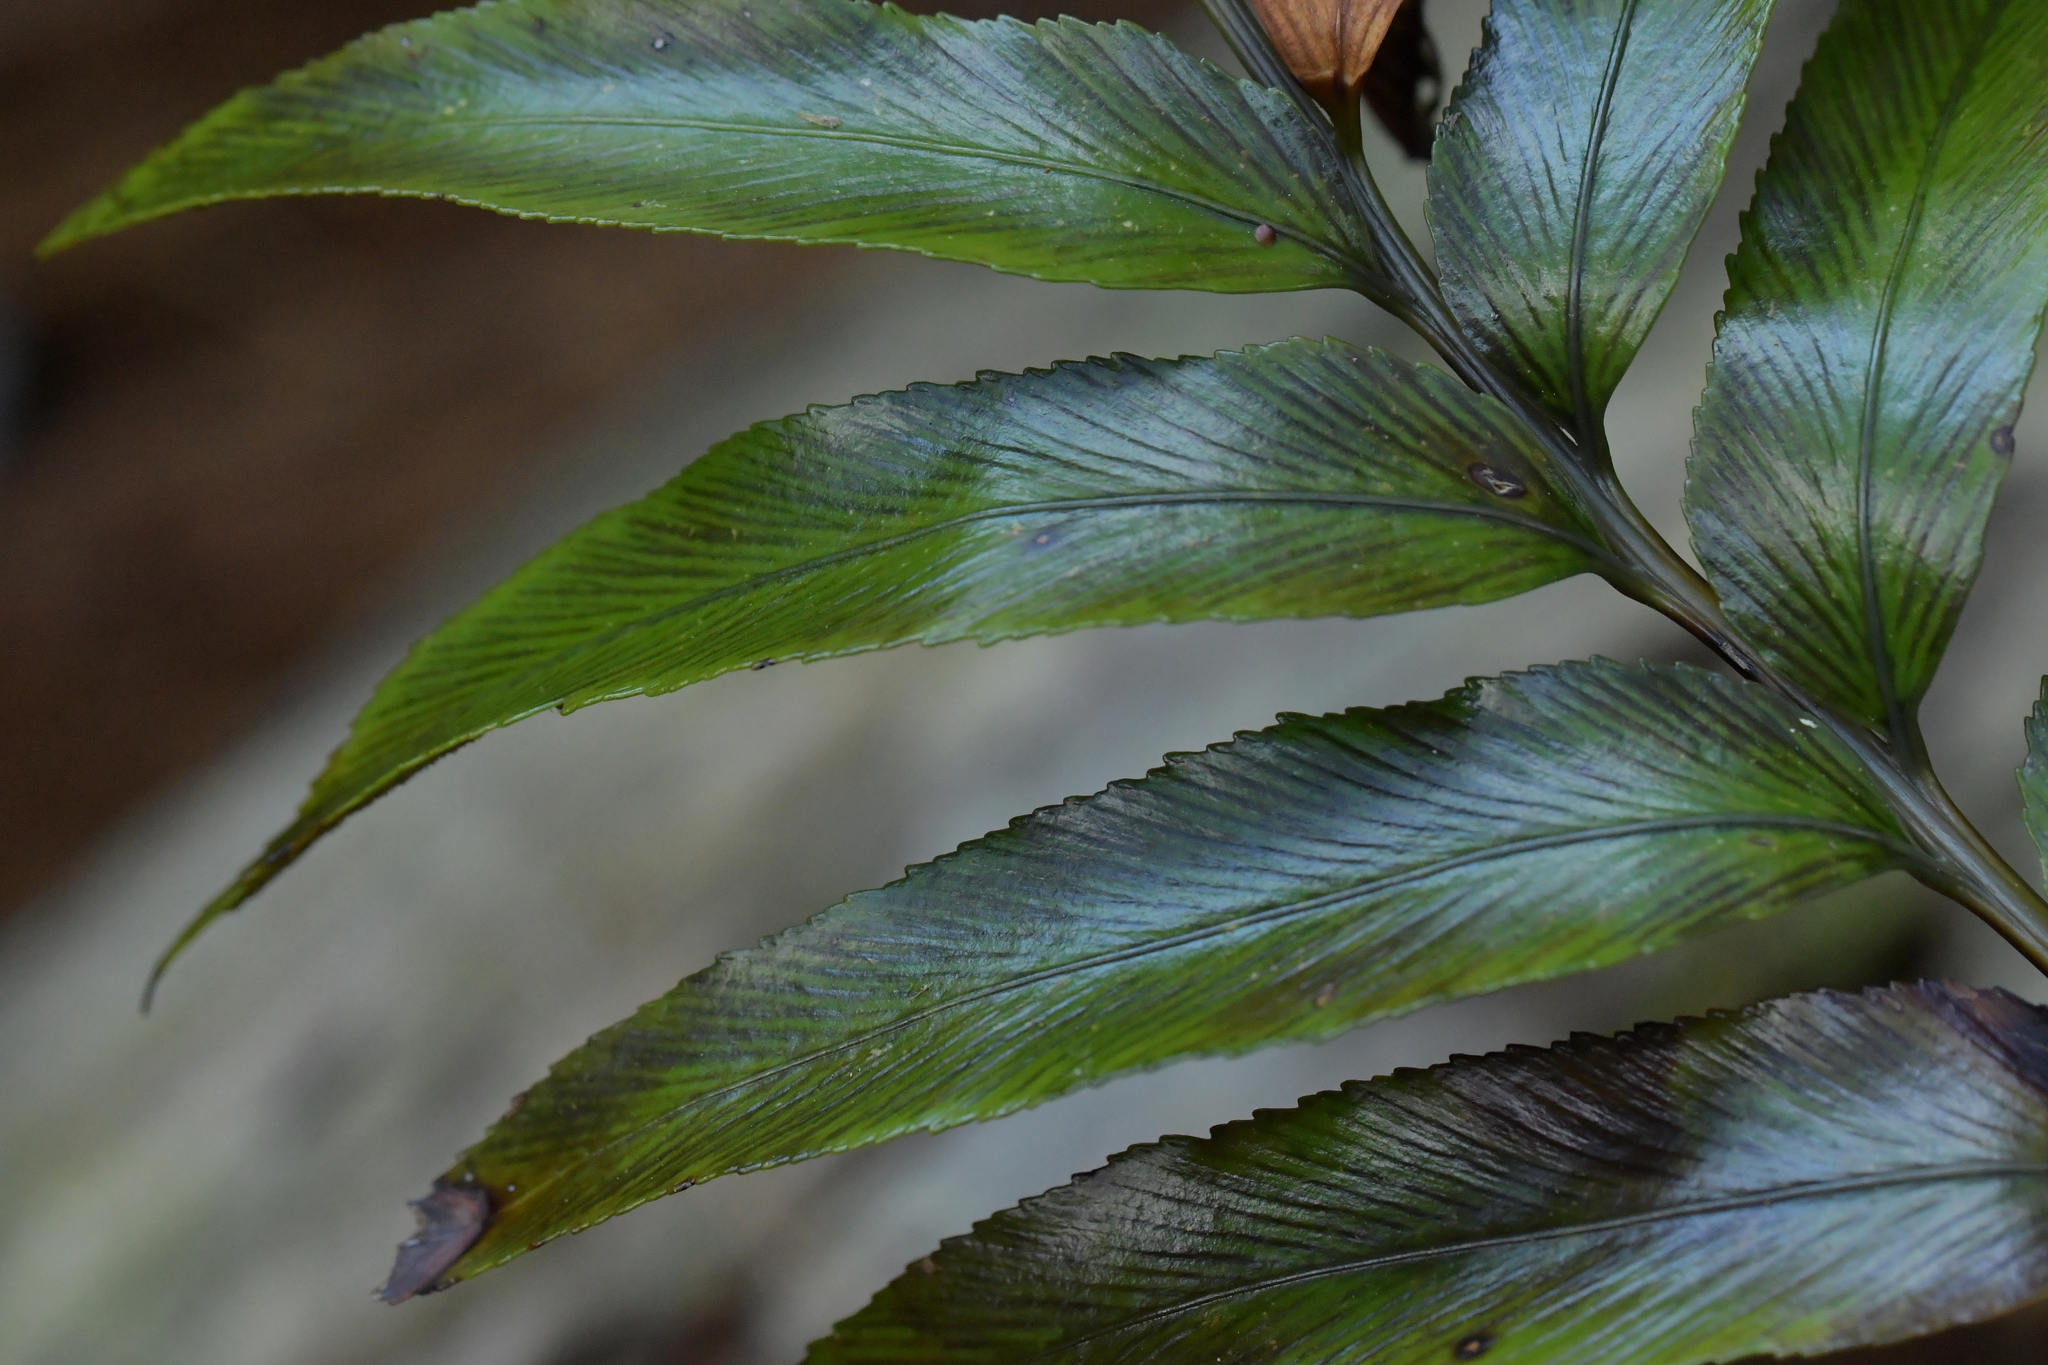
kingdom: Plantae
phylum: Tracheophyta
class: Polypodiopsida
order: Polypodiales
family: Aspleniaceae
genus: Asplenium
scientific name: Asplenium oblongifolium
